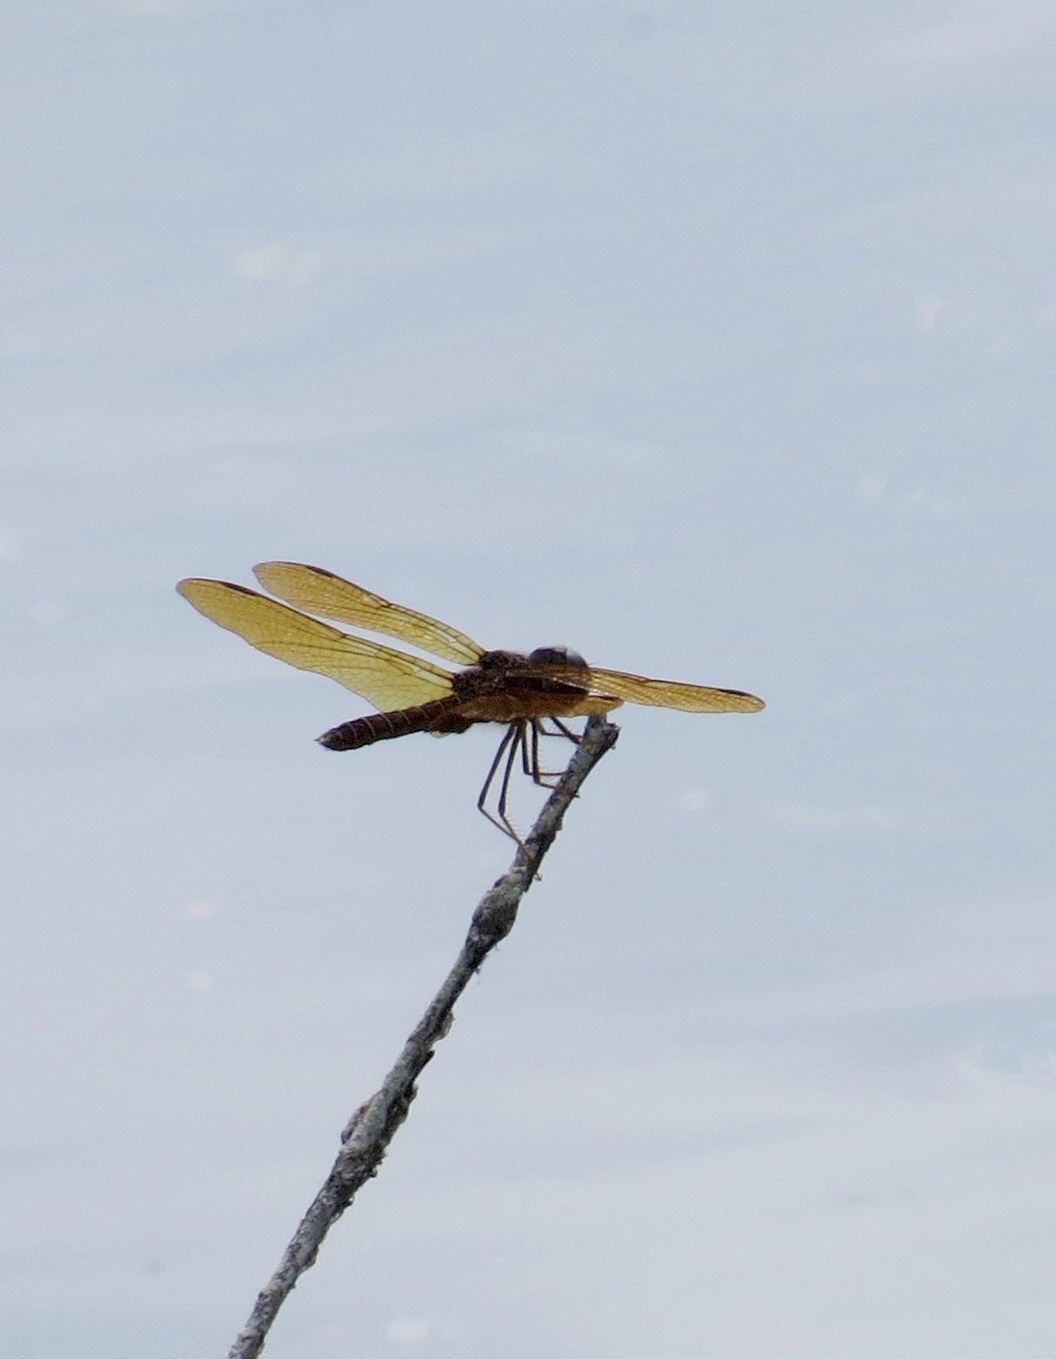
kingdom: Animalia
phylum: Arthropoda
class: Insecta
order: Odonata
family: Libellulidae
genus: Perithemis
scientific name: Perithemis tenera
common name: Eastern amberwing
